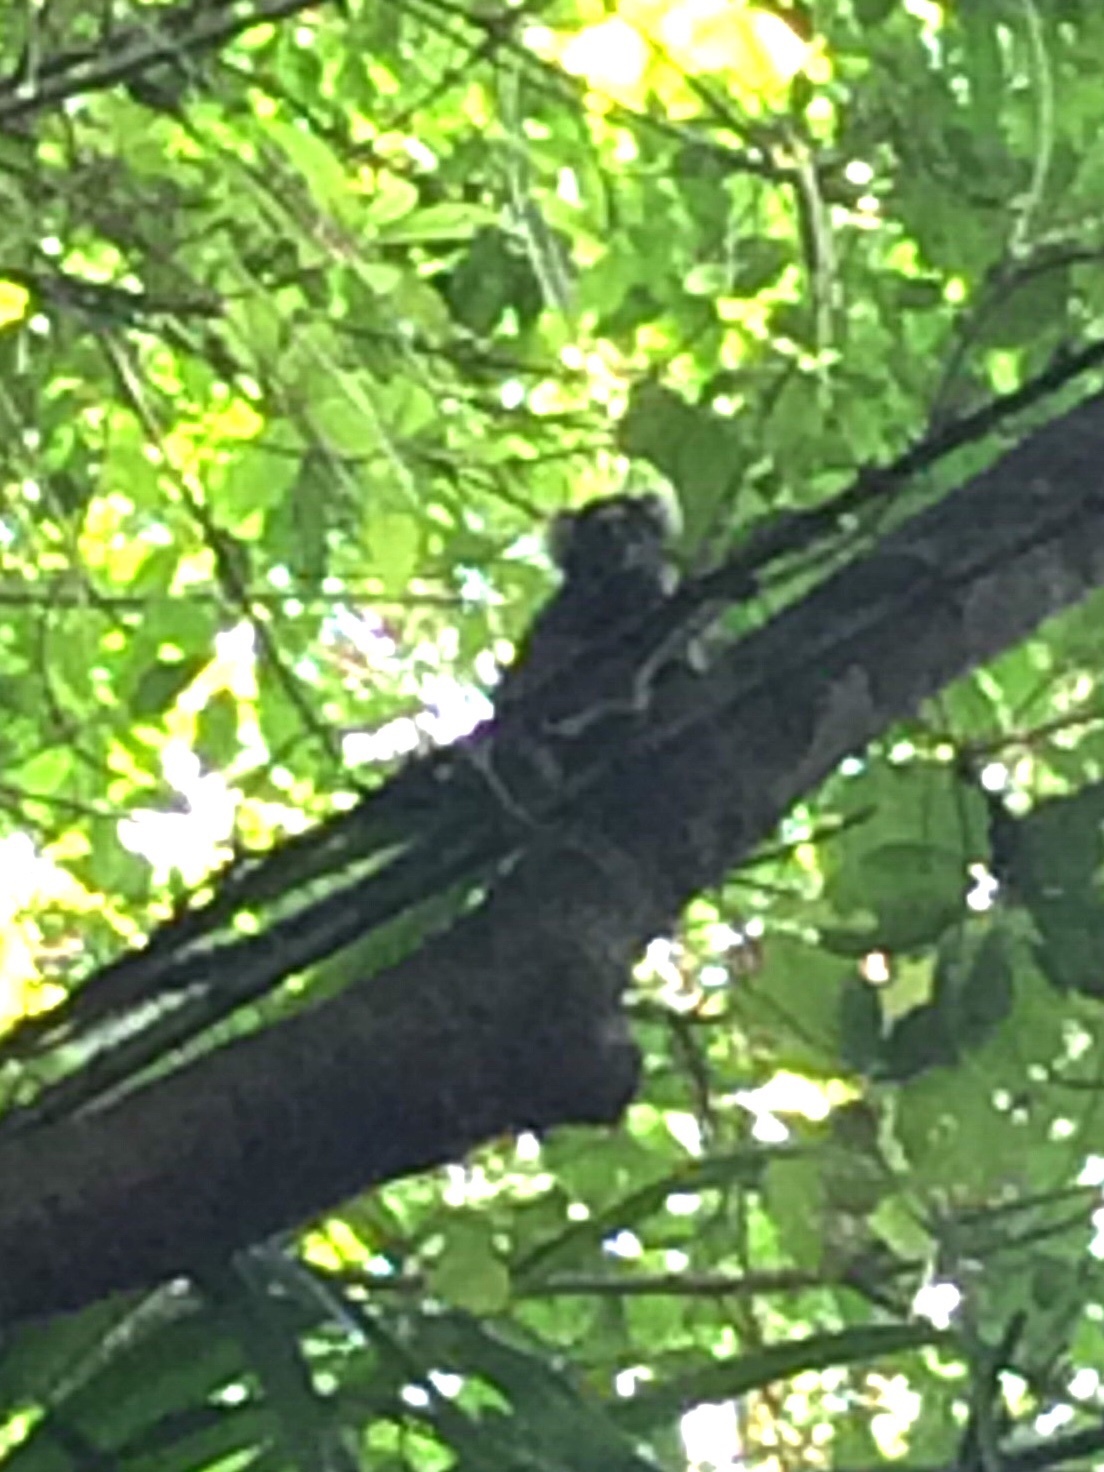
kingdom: Animalia
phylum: Chordata
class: Mammalia
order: Primates
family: Callitrichidae
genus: Callithrix
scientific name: Callithrix jacchus
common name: Common marmoset
